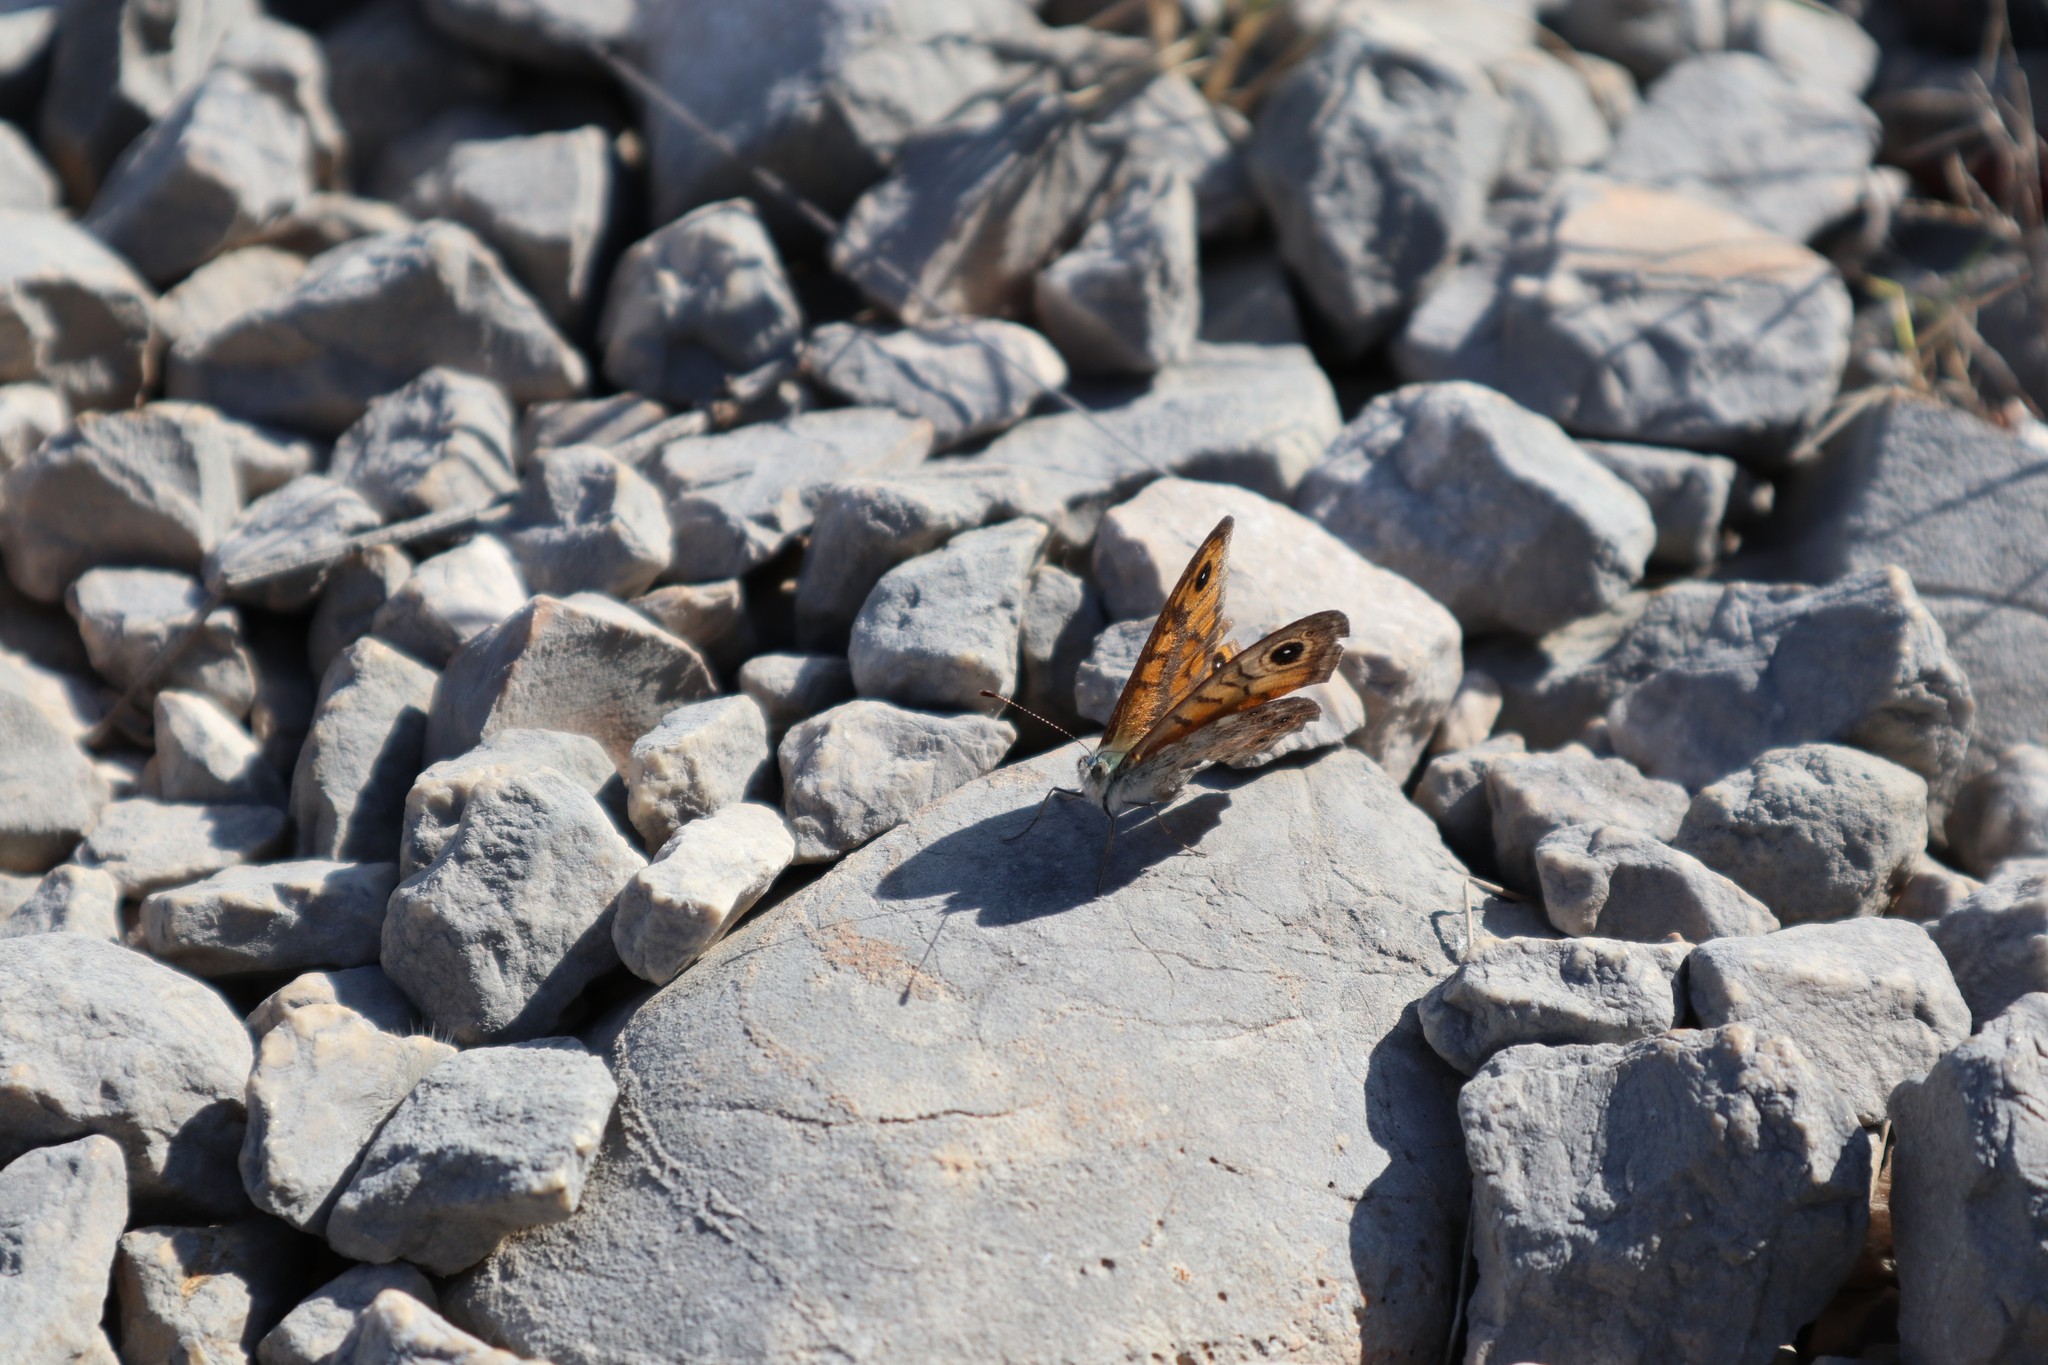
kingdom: Animalia
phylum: Arthropoda
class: Insecta
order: Lepidoptera
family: Nymphalidae
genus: Pararge
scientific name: Pararge Lasiommata megera
